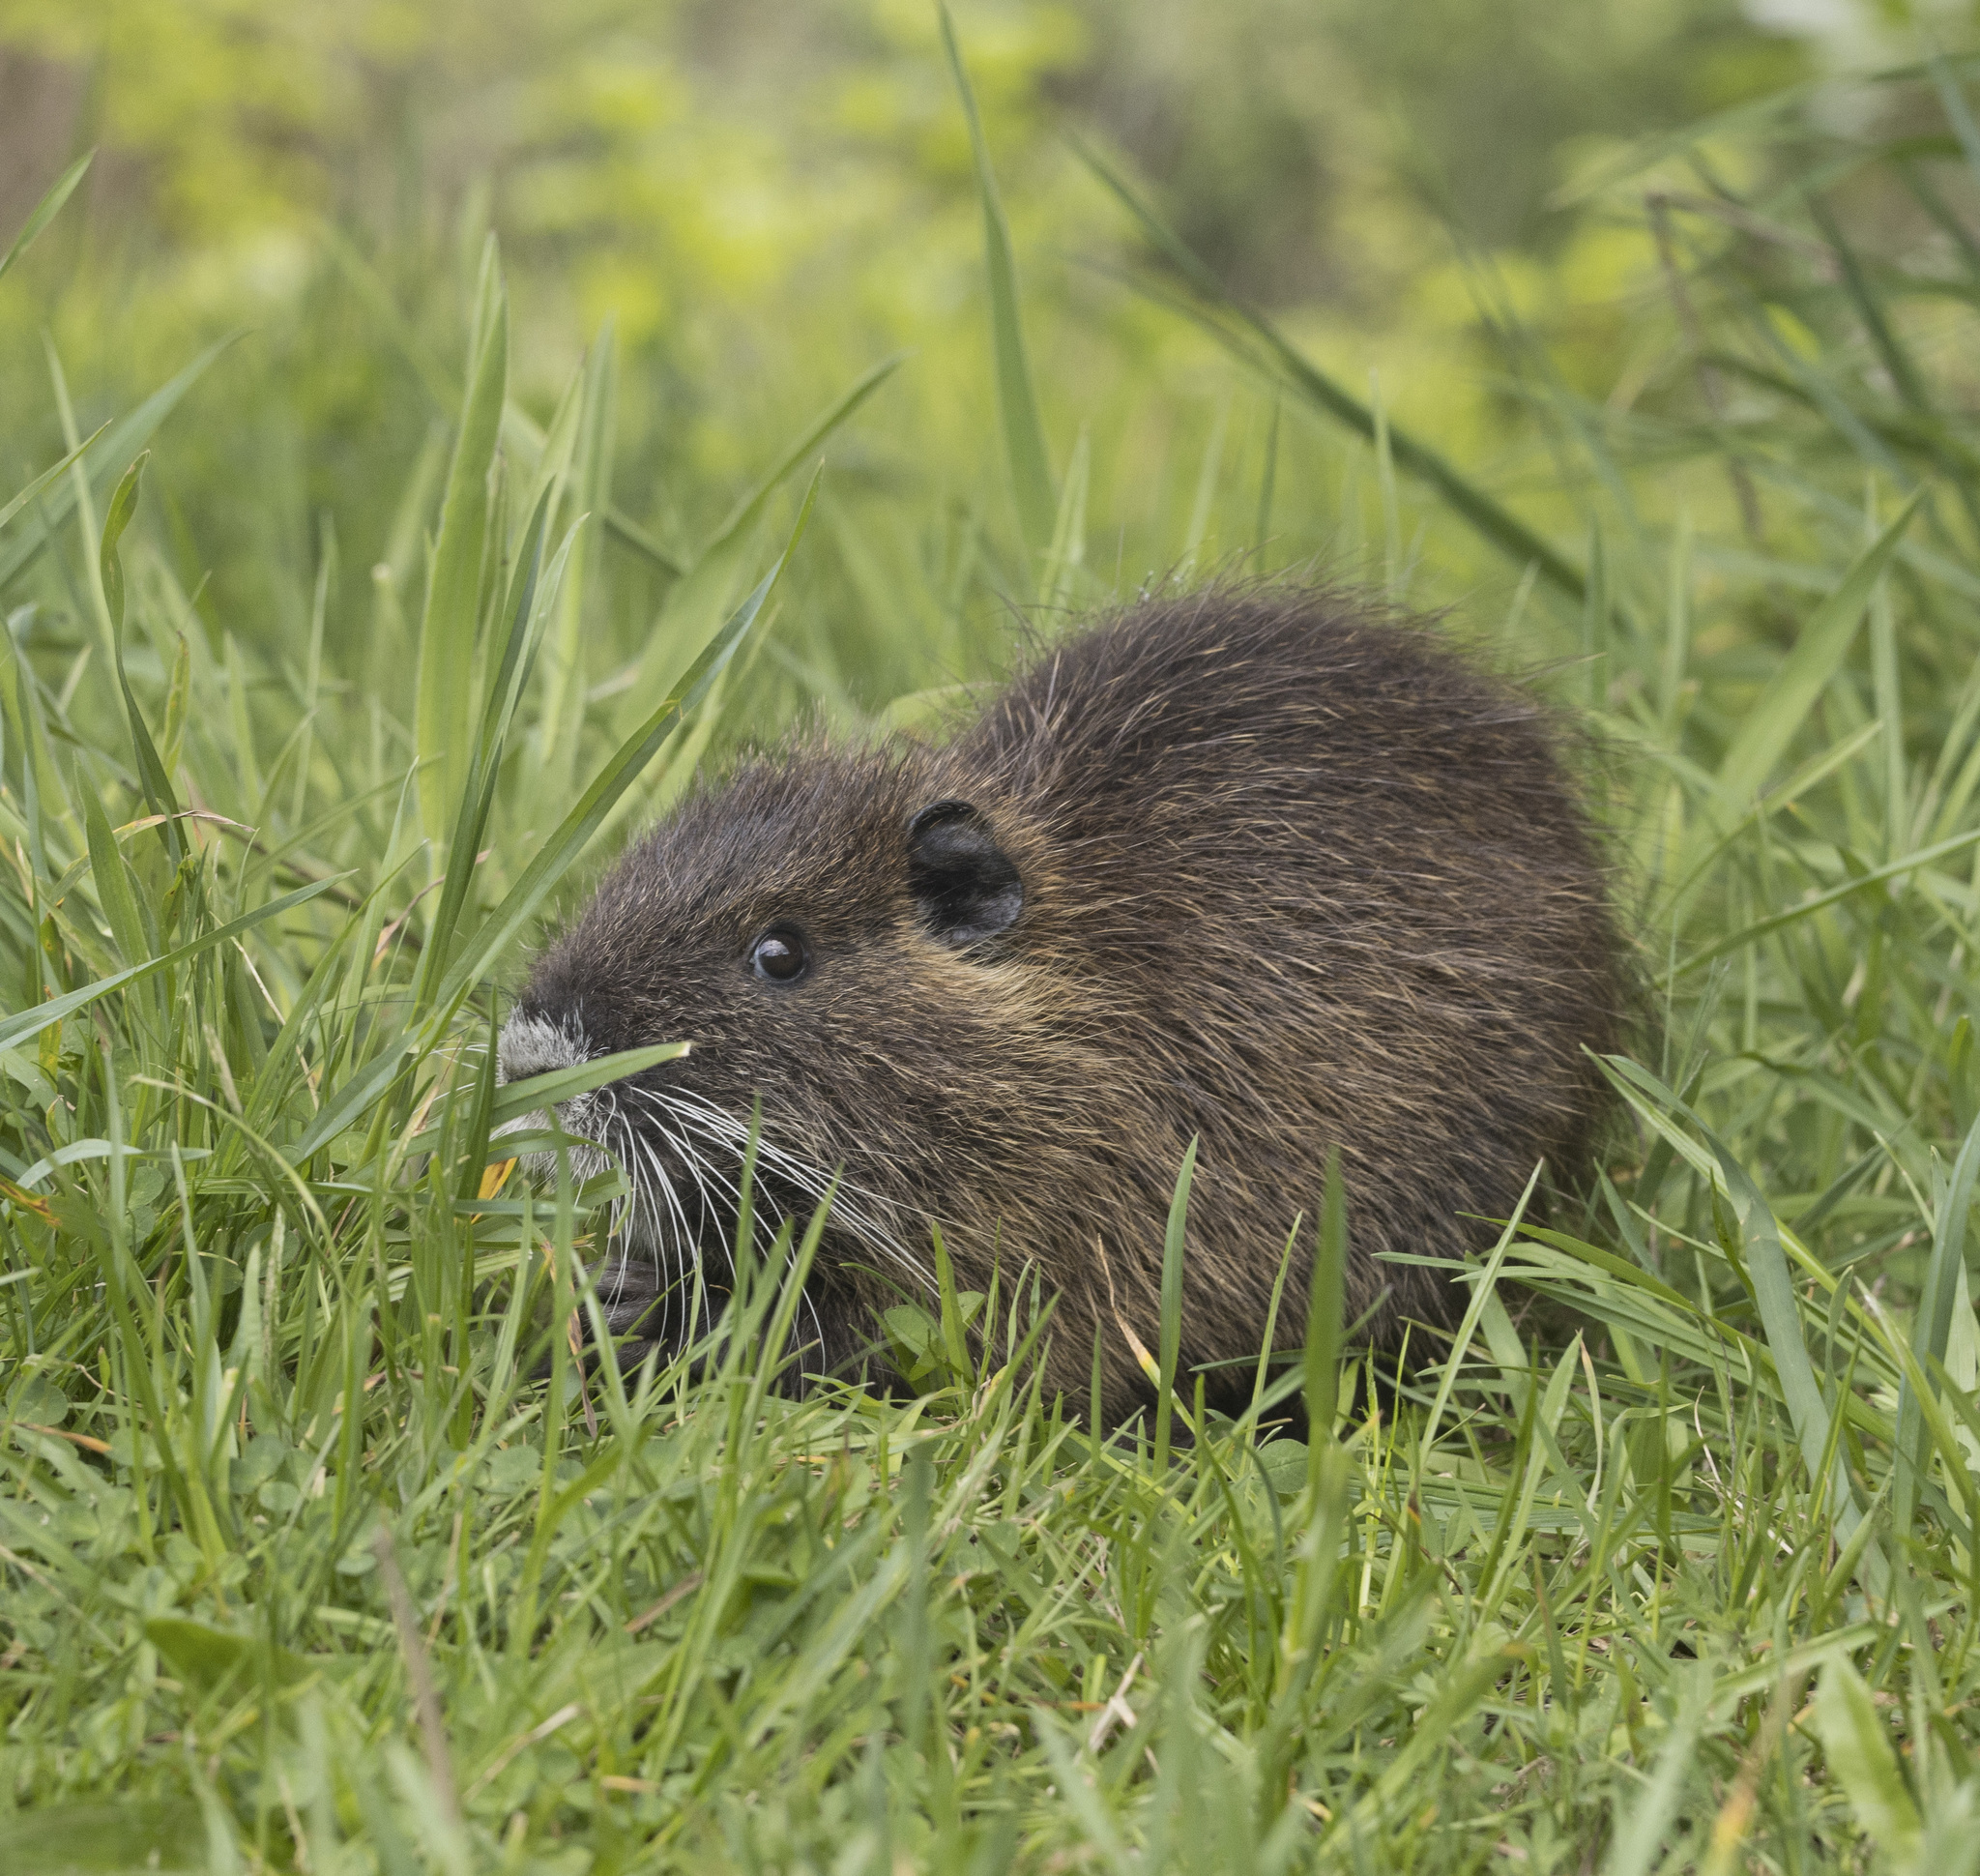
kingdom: Animalia
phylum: Chordata
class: Mammalia
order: Rodentia
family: Myocastoridae
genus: Myocastor
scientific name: Myocastor coypus
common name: Coypu
